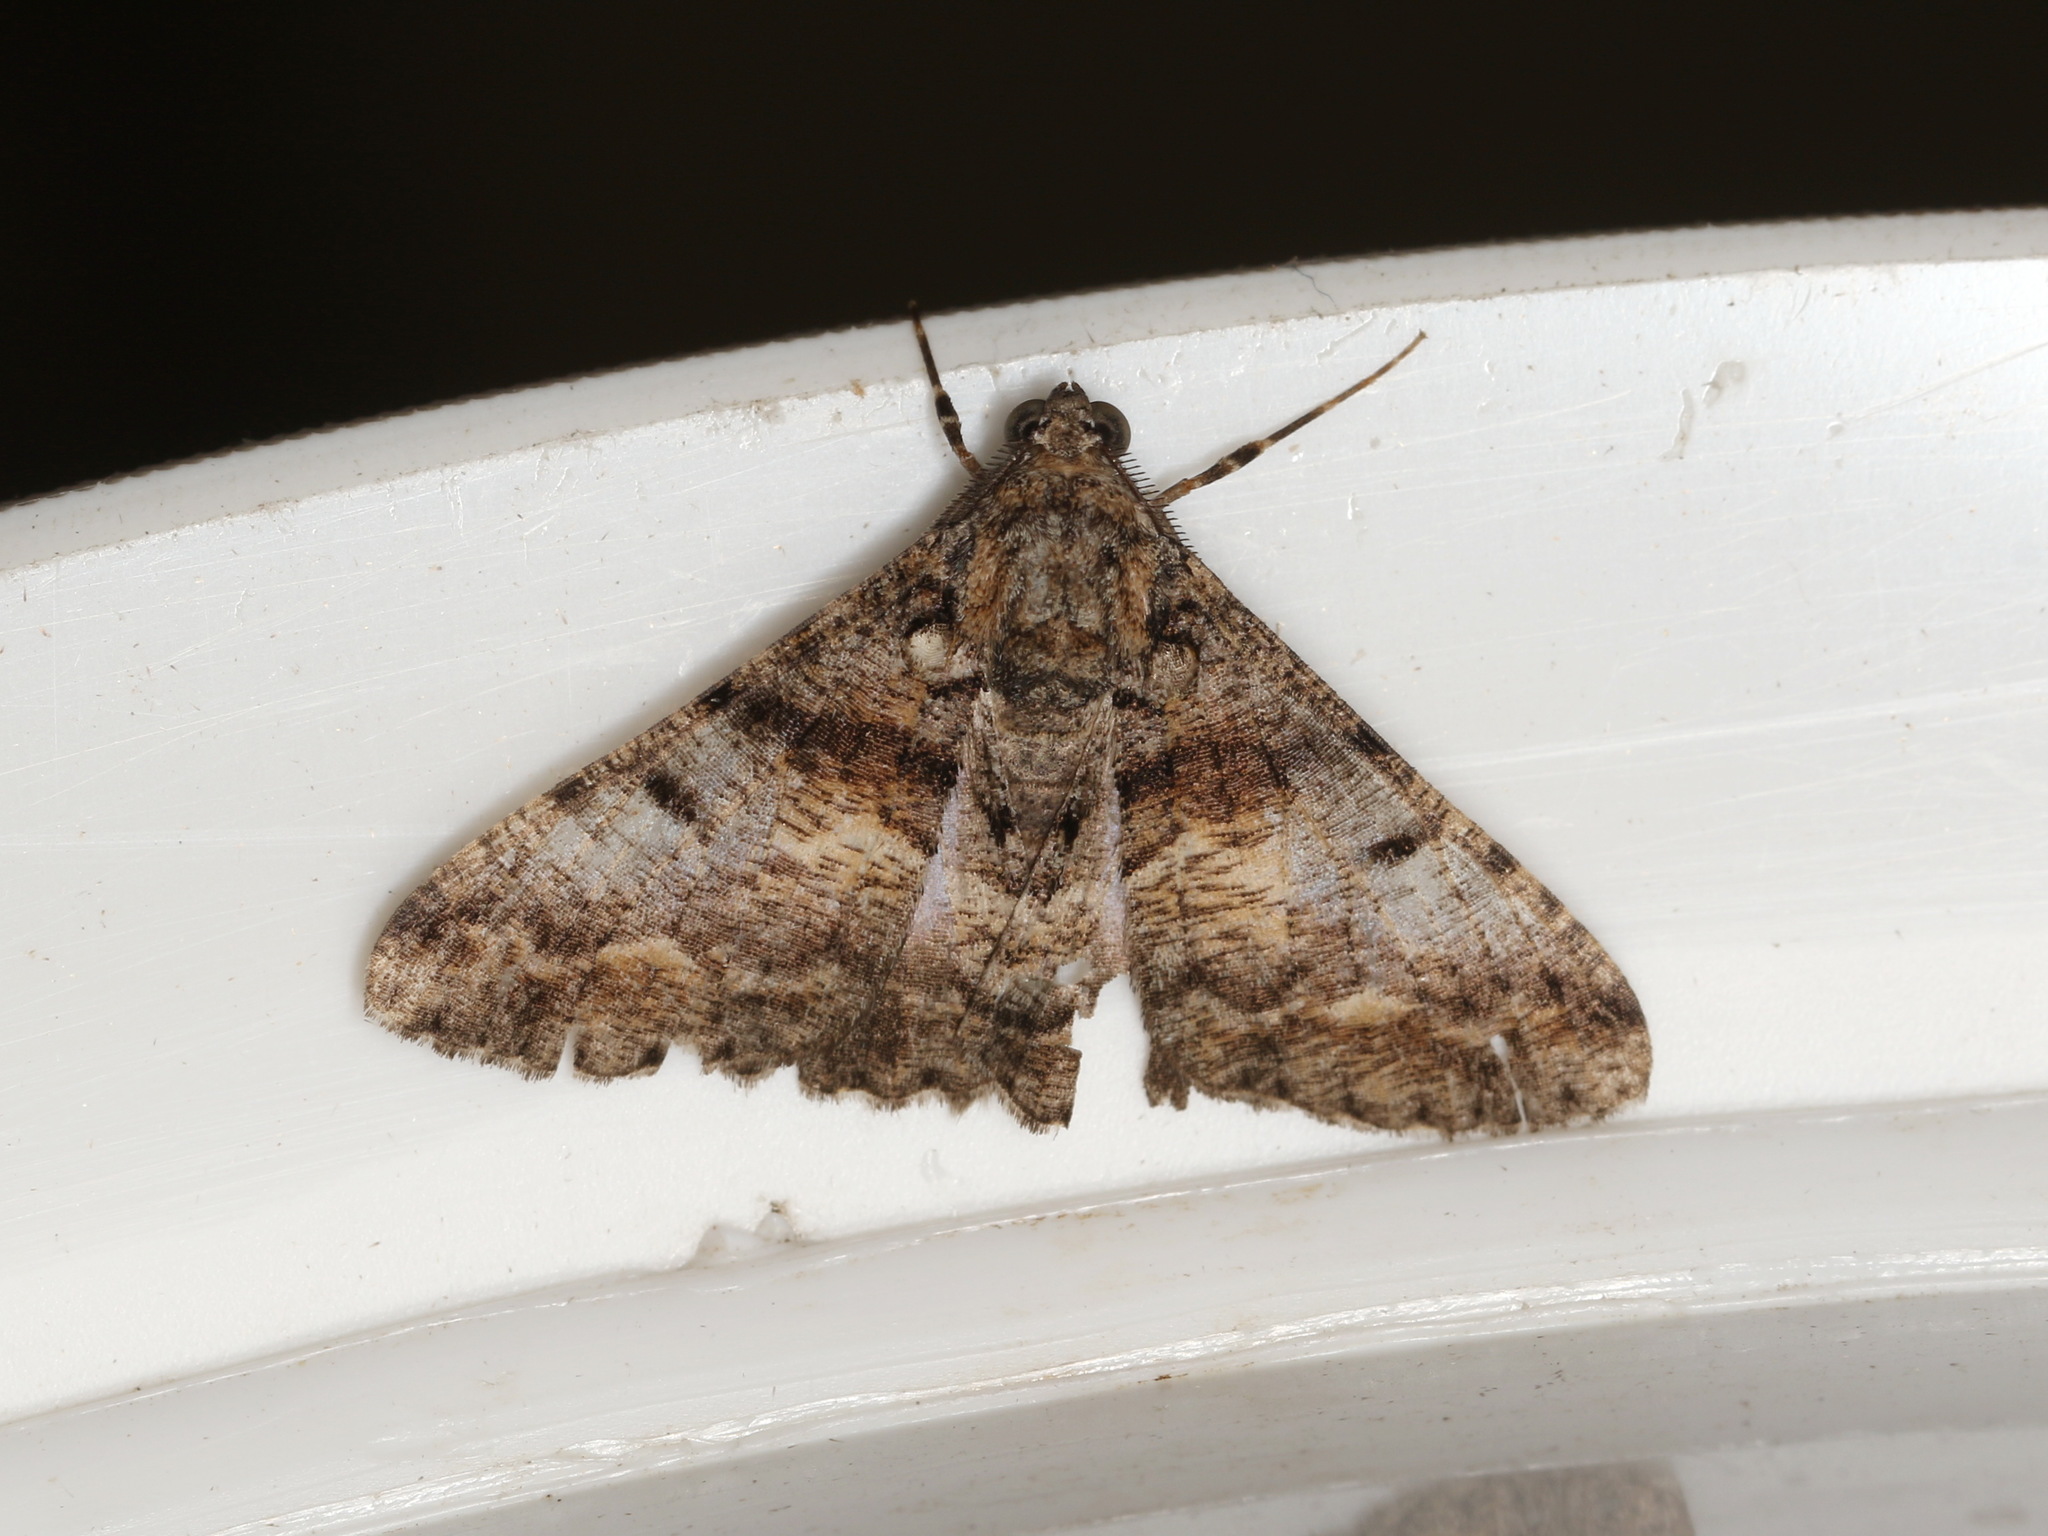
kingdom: Animalia
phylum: Arthropoda
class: Insecta
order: Lepidoptera
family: Geometridae
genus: Gastrinodes
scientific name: Gastrinodes argoplaca
